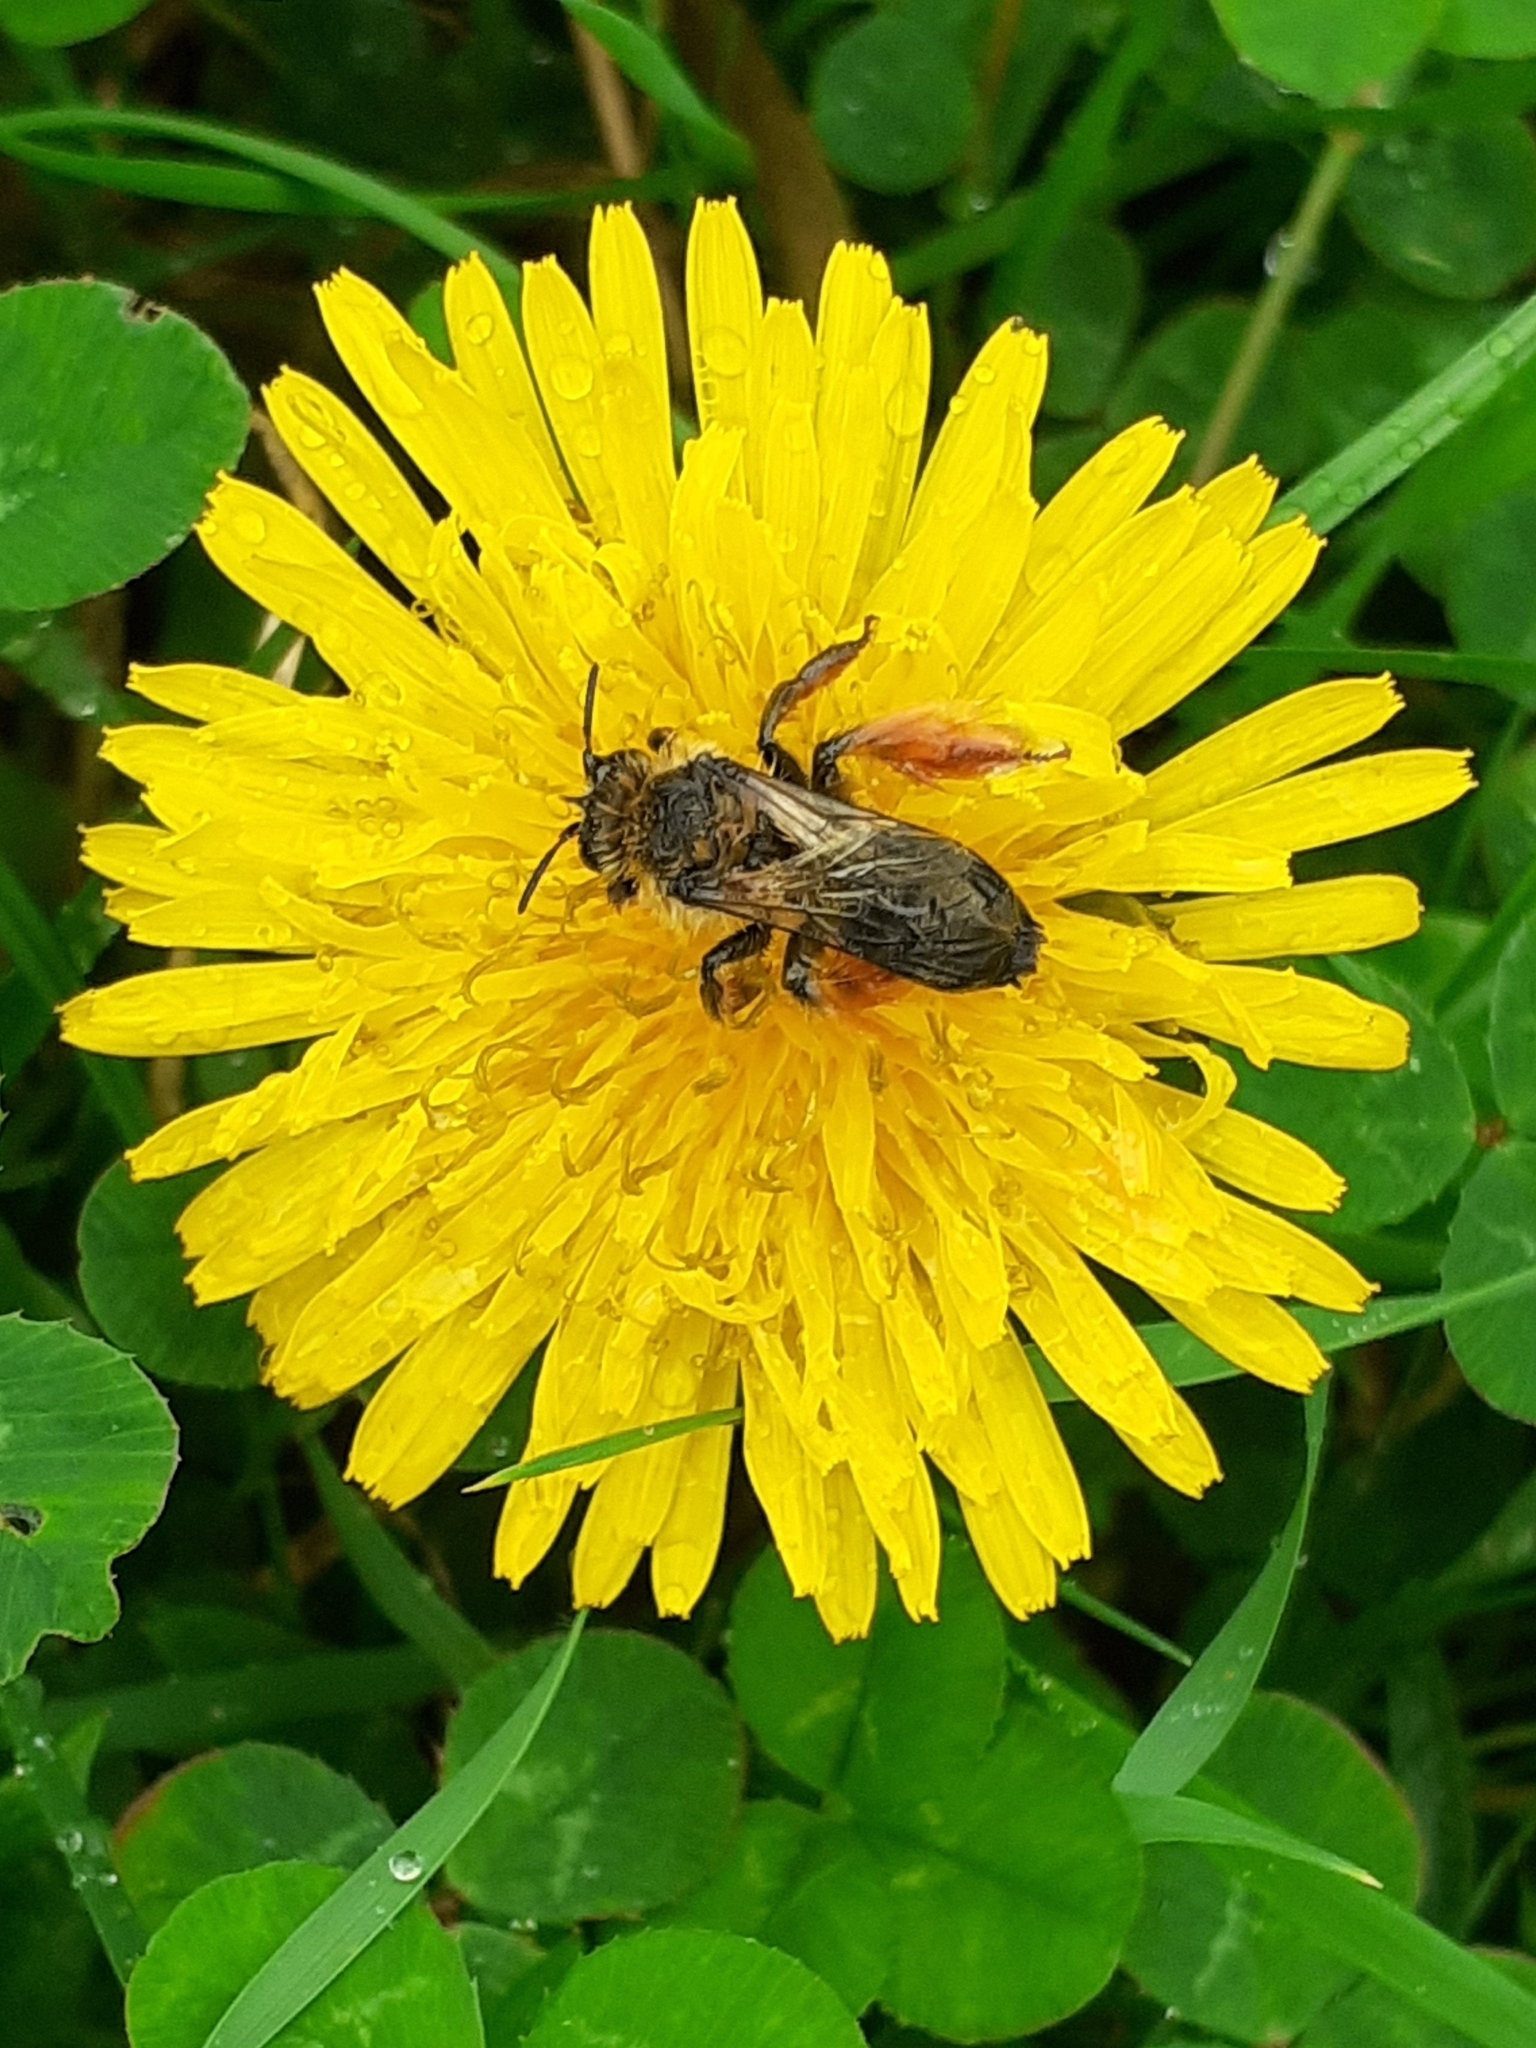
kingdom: Animalia
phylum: Arthropoda
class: Insecta
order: Hymenoptera
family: Melittidae
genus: Dasypoda
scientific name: Dasypoda hirtipes
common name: Pantaloon bee
